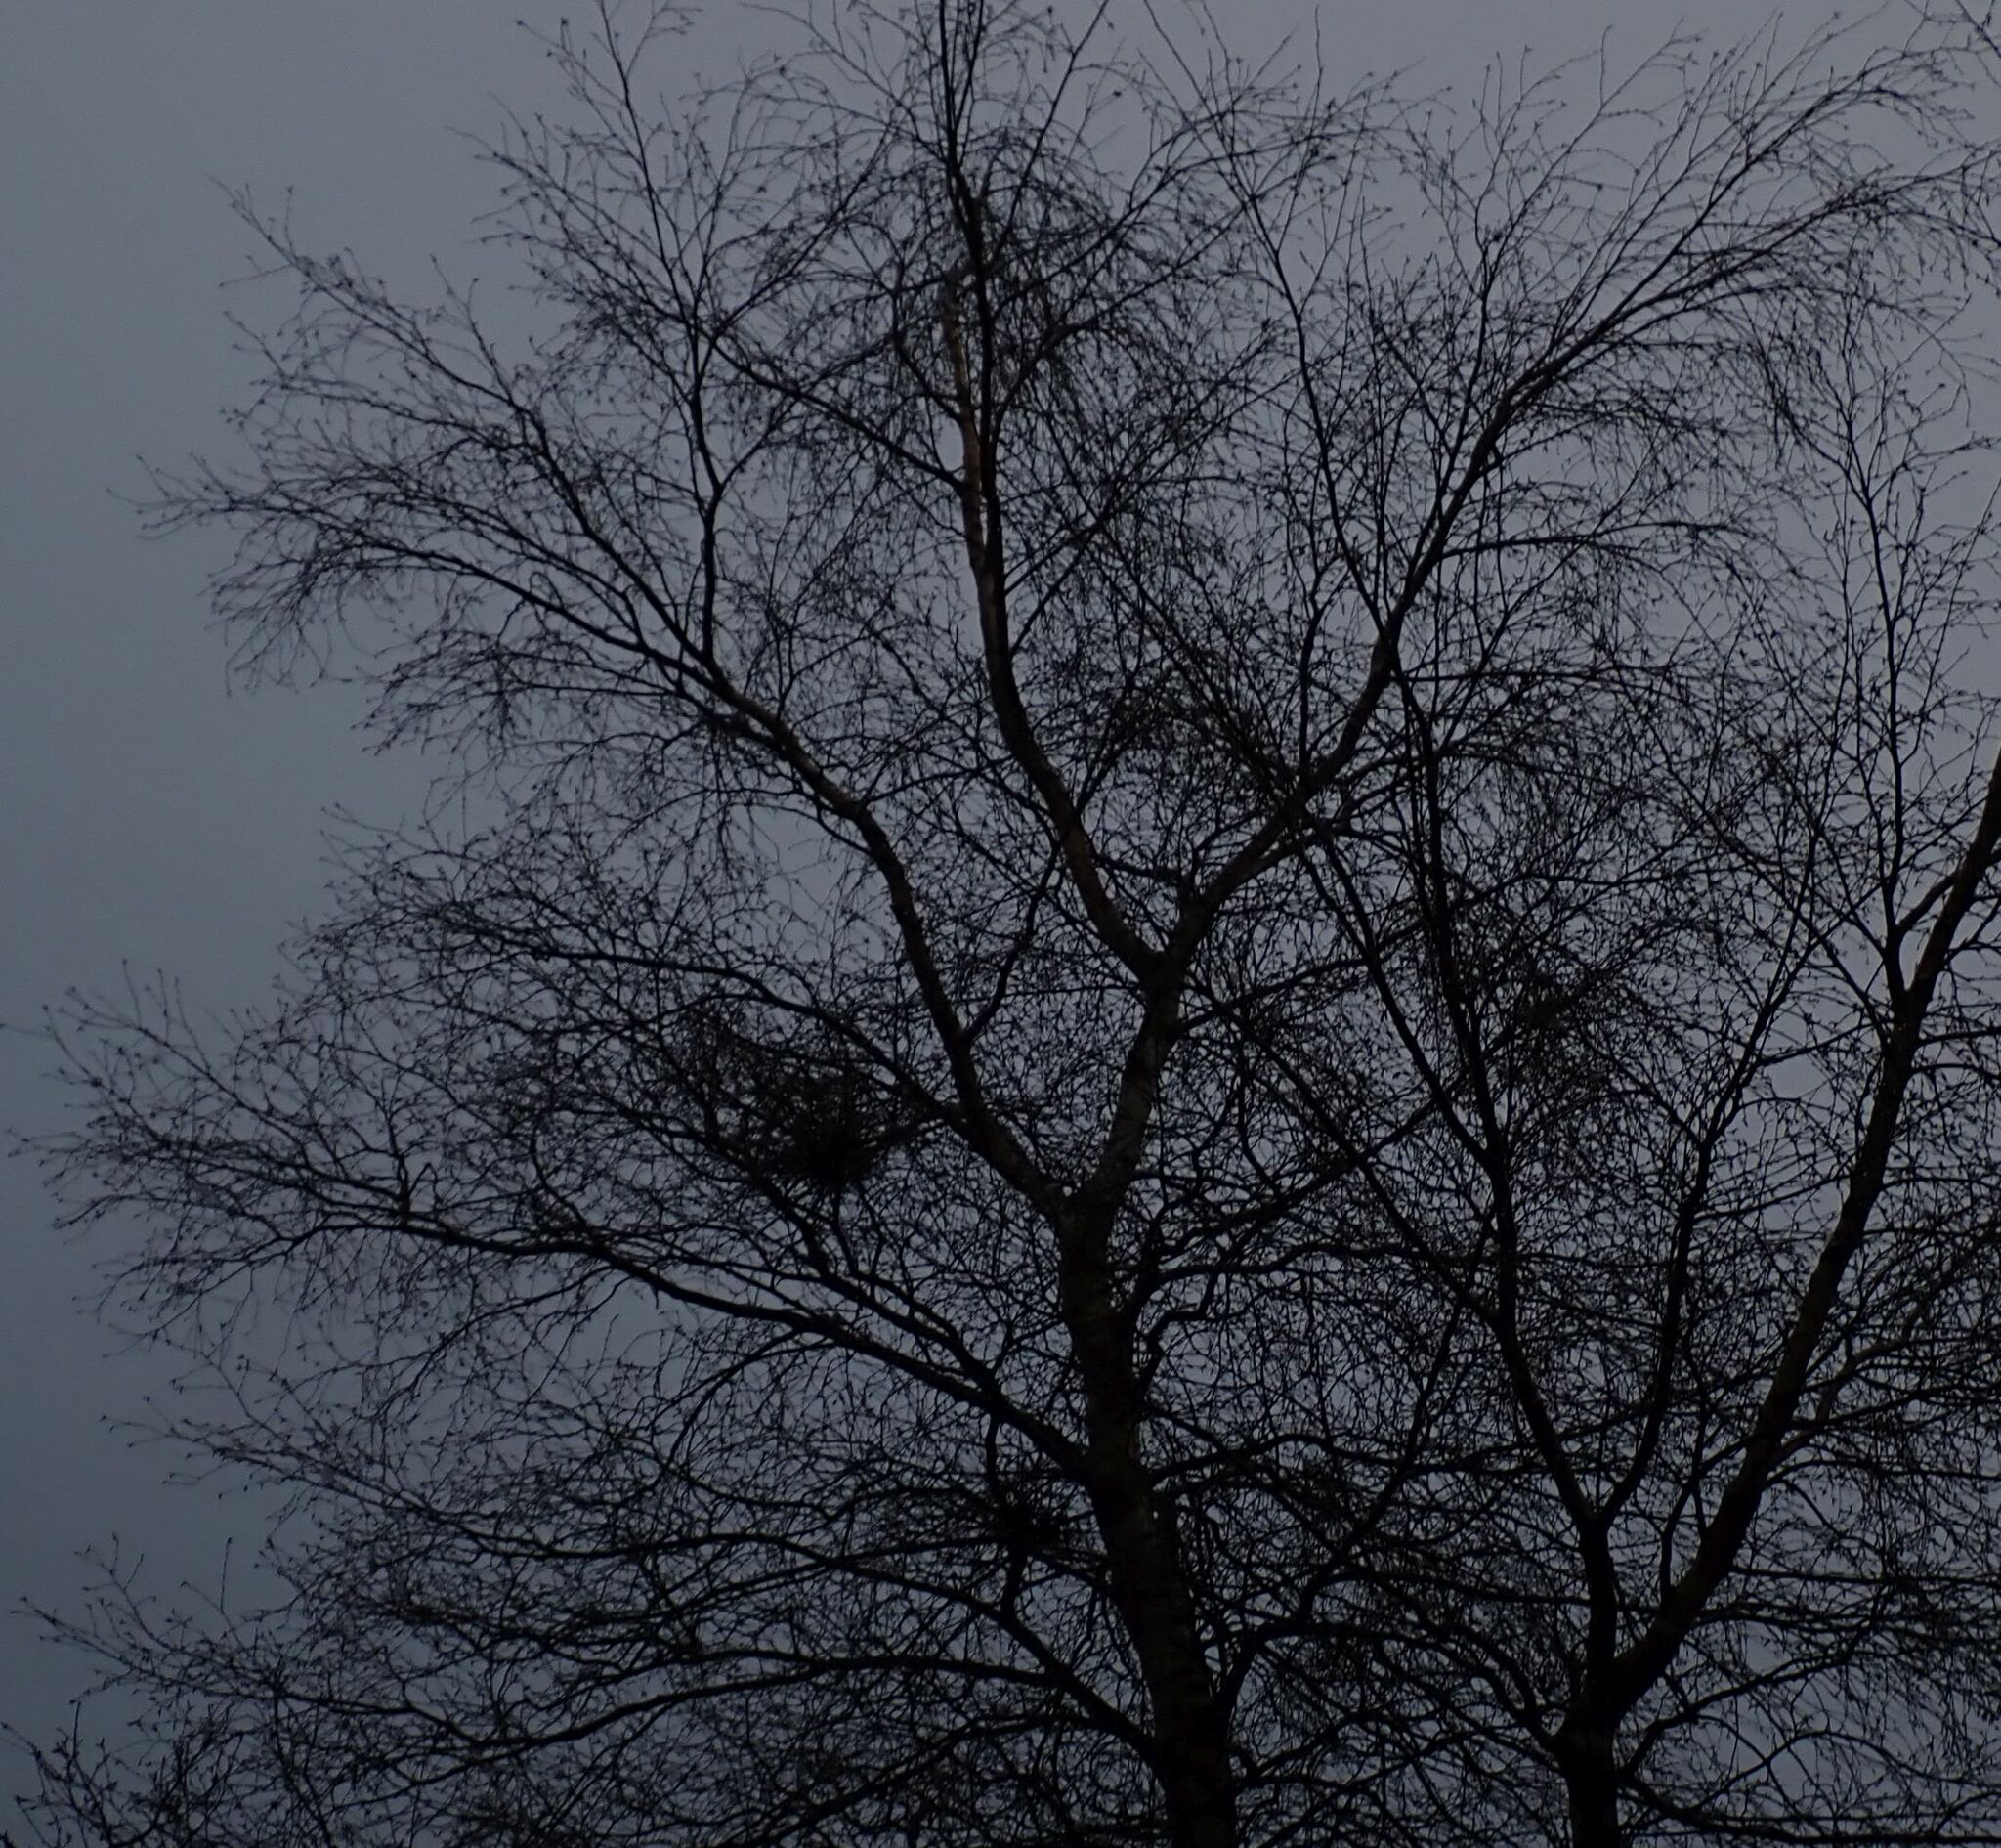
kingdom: Fungi
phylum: Ascomycota
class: Taphrinomycetes
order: Taphrinales
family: Taphrinaceae
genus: Taphrina
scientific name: Taphrina betulina
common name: Birch besom
